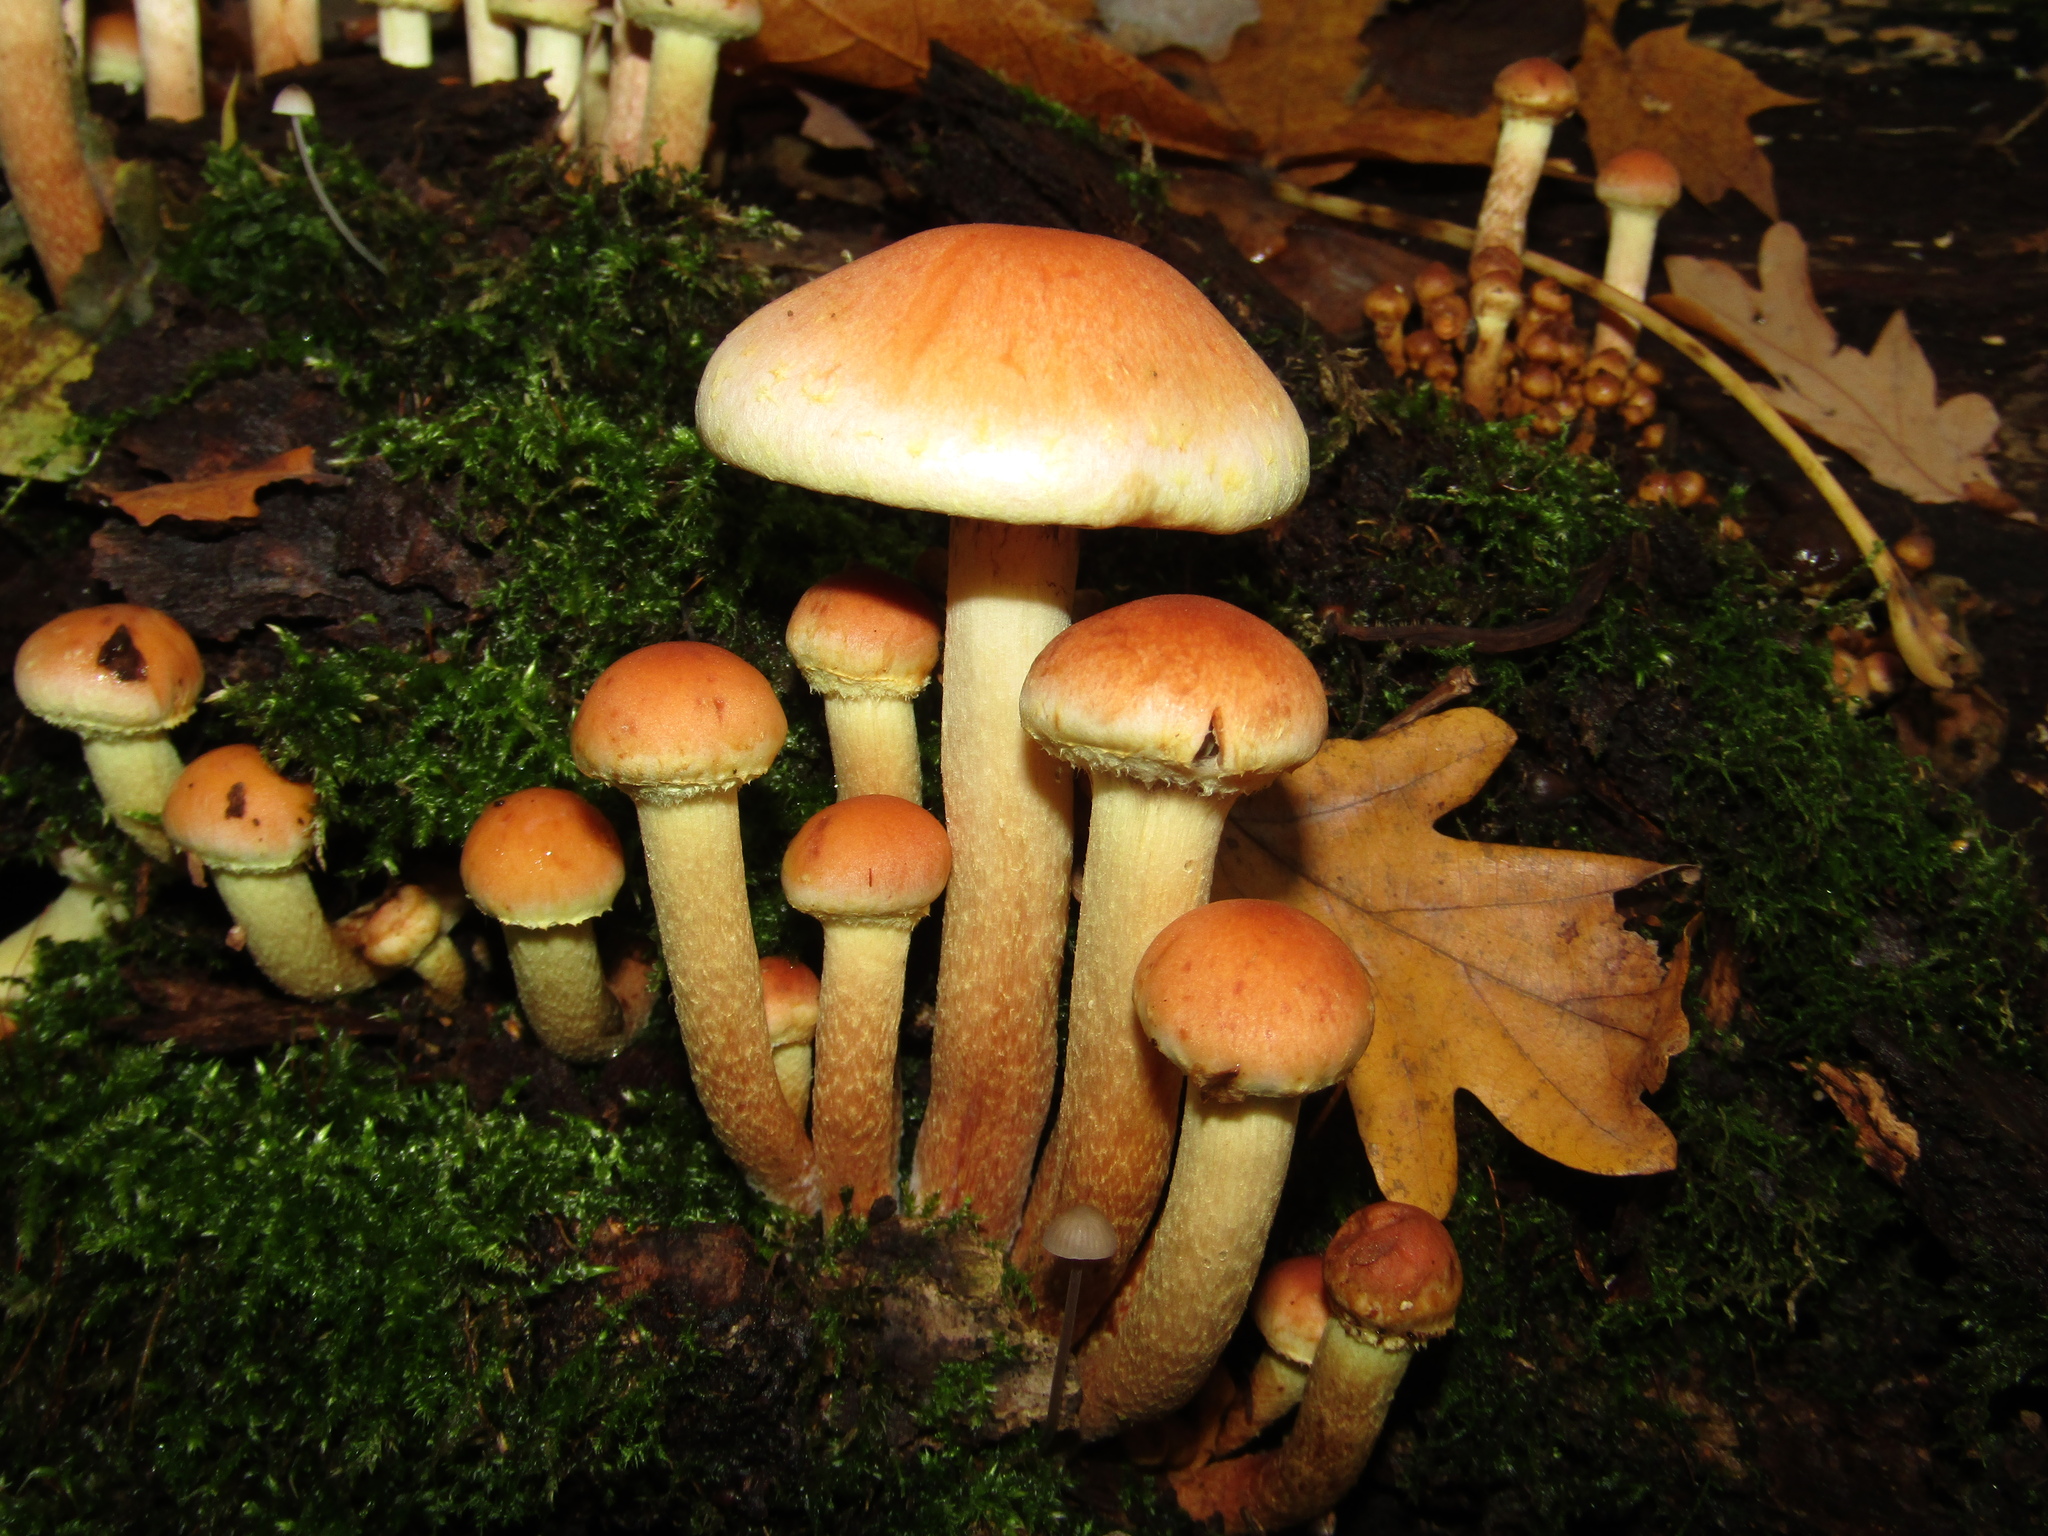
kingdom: Fungi
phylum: Basidiomycota
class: Agaricomycetes
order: Agaricales
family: Strophariaceae
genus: Hypholoma
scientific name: Hypholoma lateritium
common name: Brick caps
